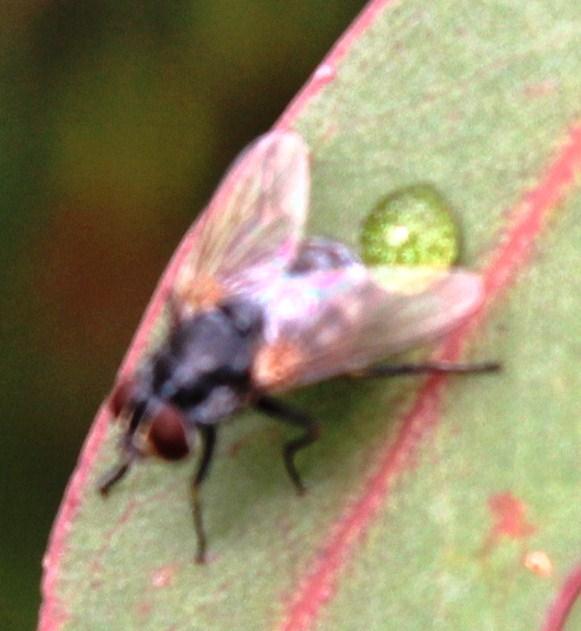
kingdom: Animalia
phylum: Arthropoda
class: Insecta
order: Diptera
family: Muscidae
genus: Stomoxys
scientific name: Stomoxys calcitrans
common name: Stable fly
